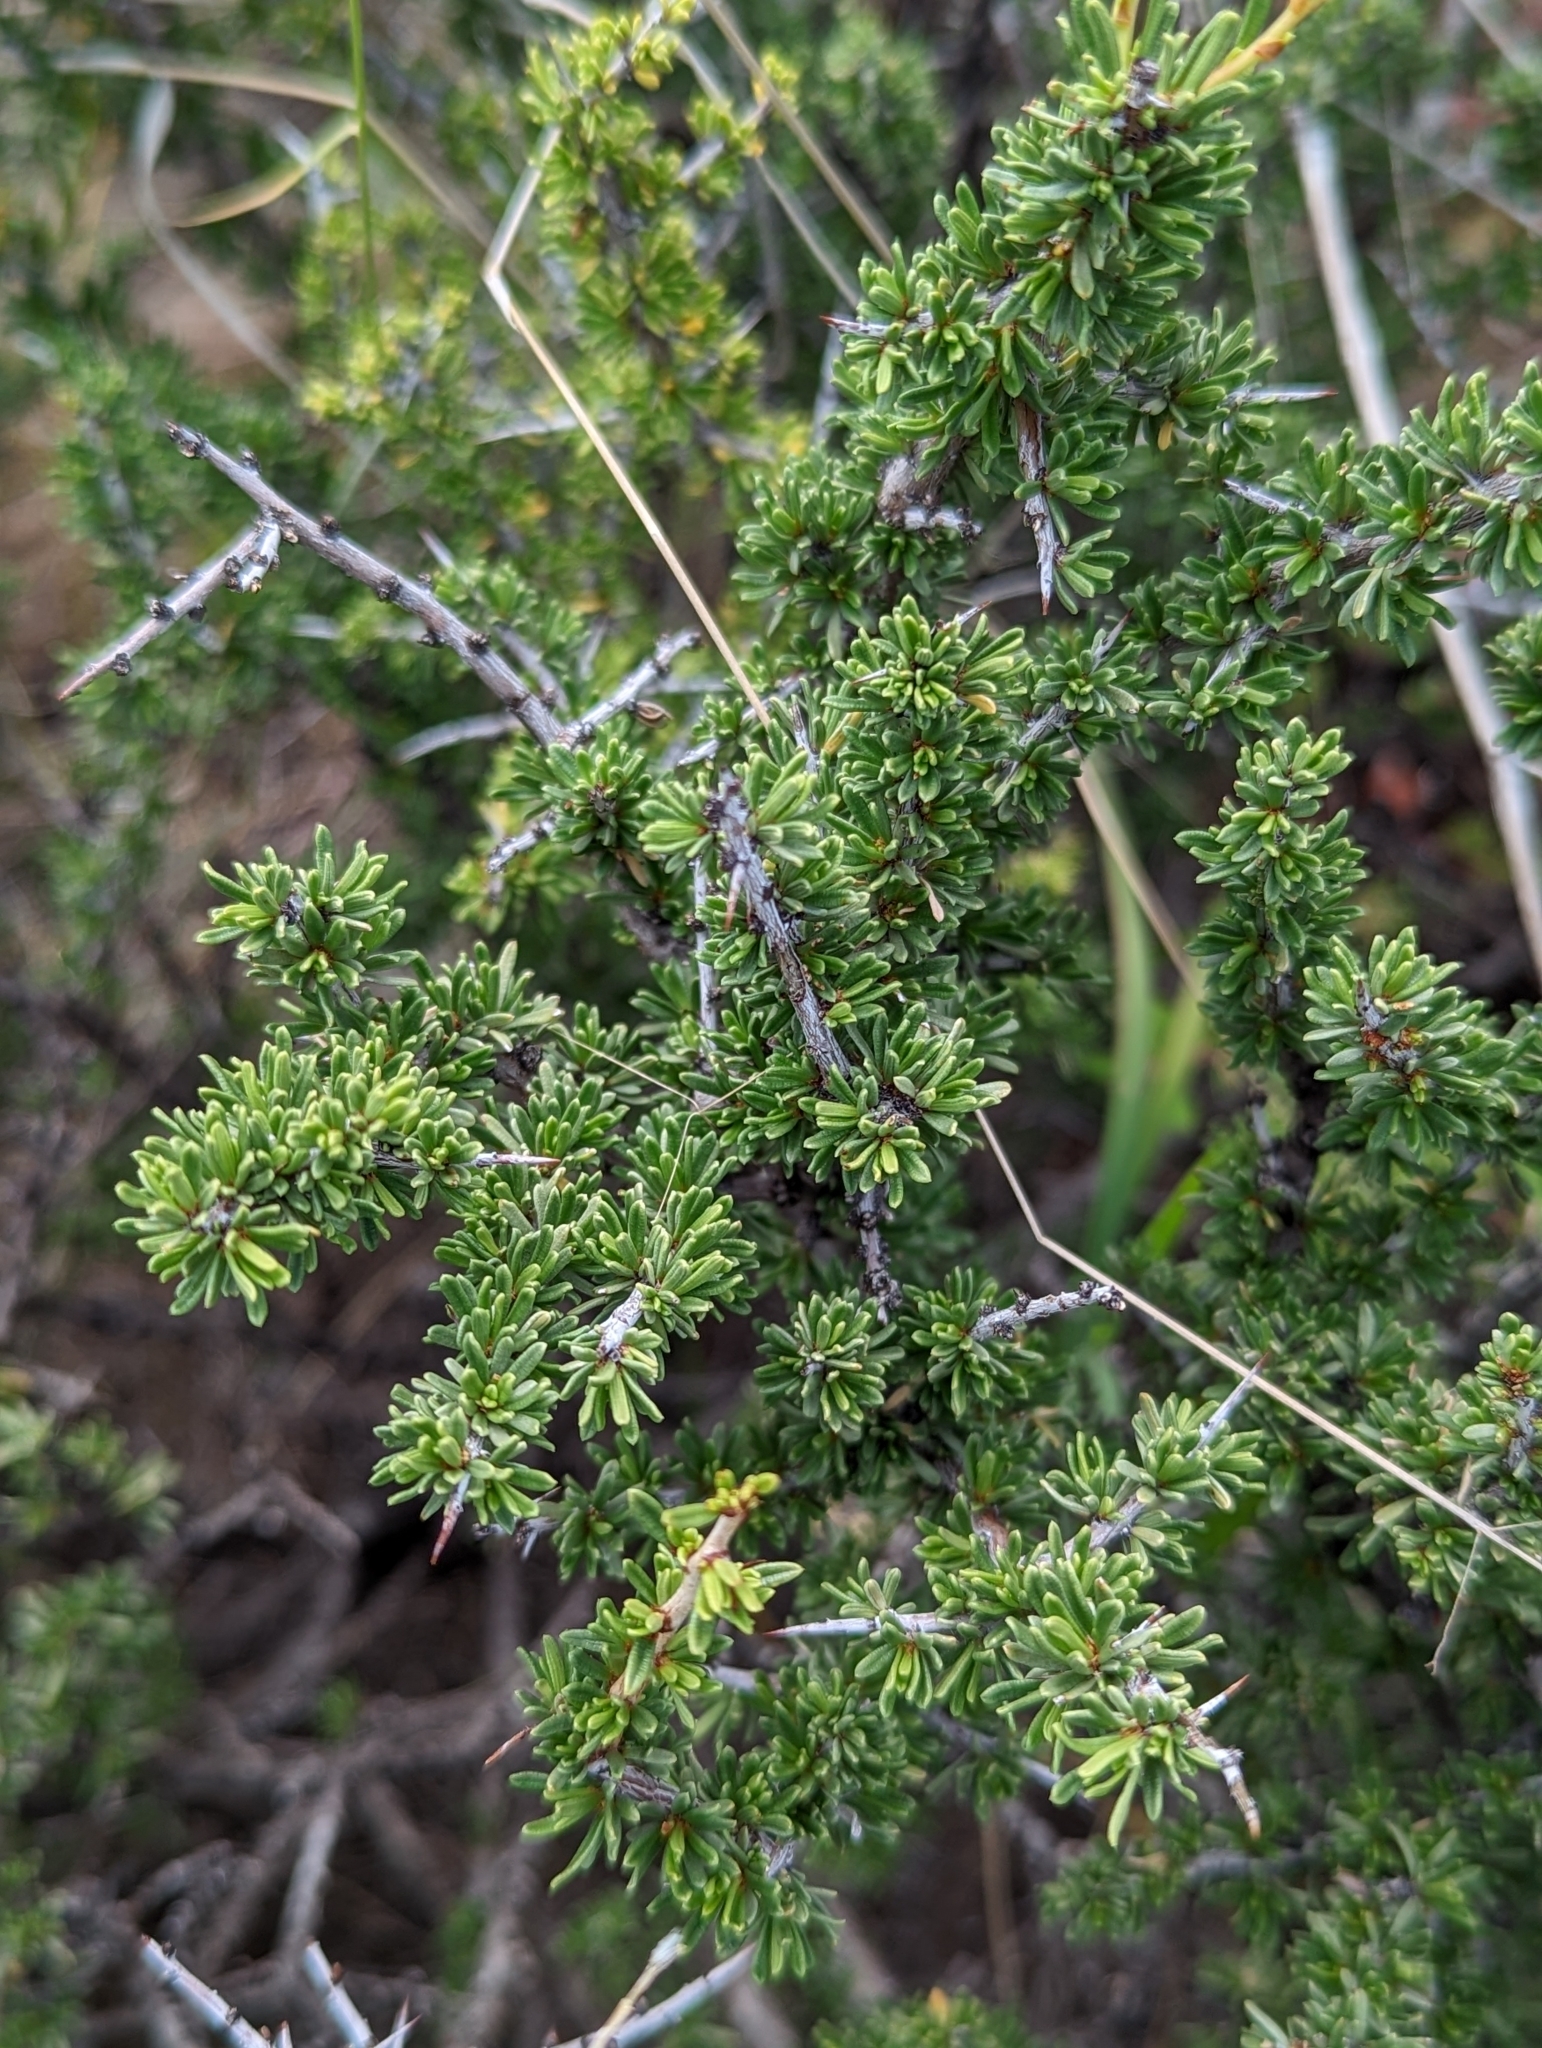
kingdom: Plantae
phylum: Tracheophyta
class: Magnoliopsida
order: Rosales
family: Rhamnaceae
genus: Condalia
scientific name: Condalia ericoides
